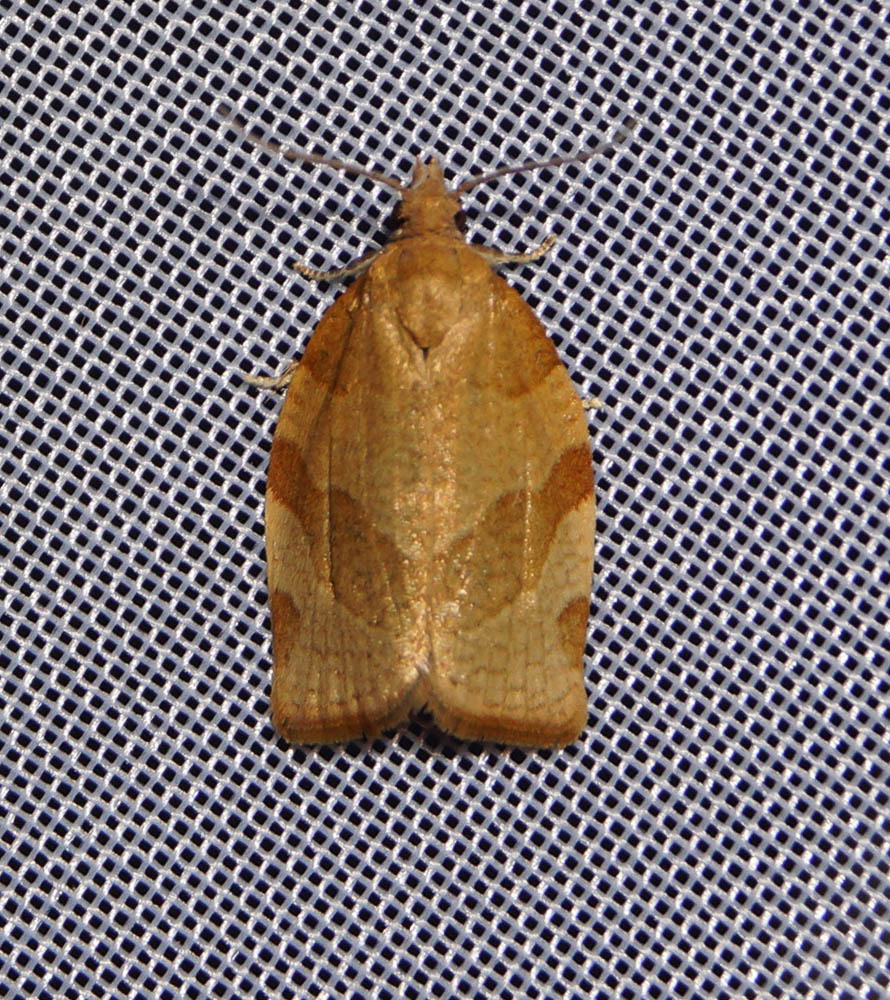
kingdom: Animalia
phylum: Arthropoda
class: Insecta
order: Lepidoptera
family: Tortricidae
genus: Pandemis
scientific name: Pandemis cerasana
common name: Barred fruit-tree tortrix
